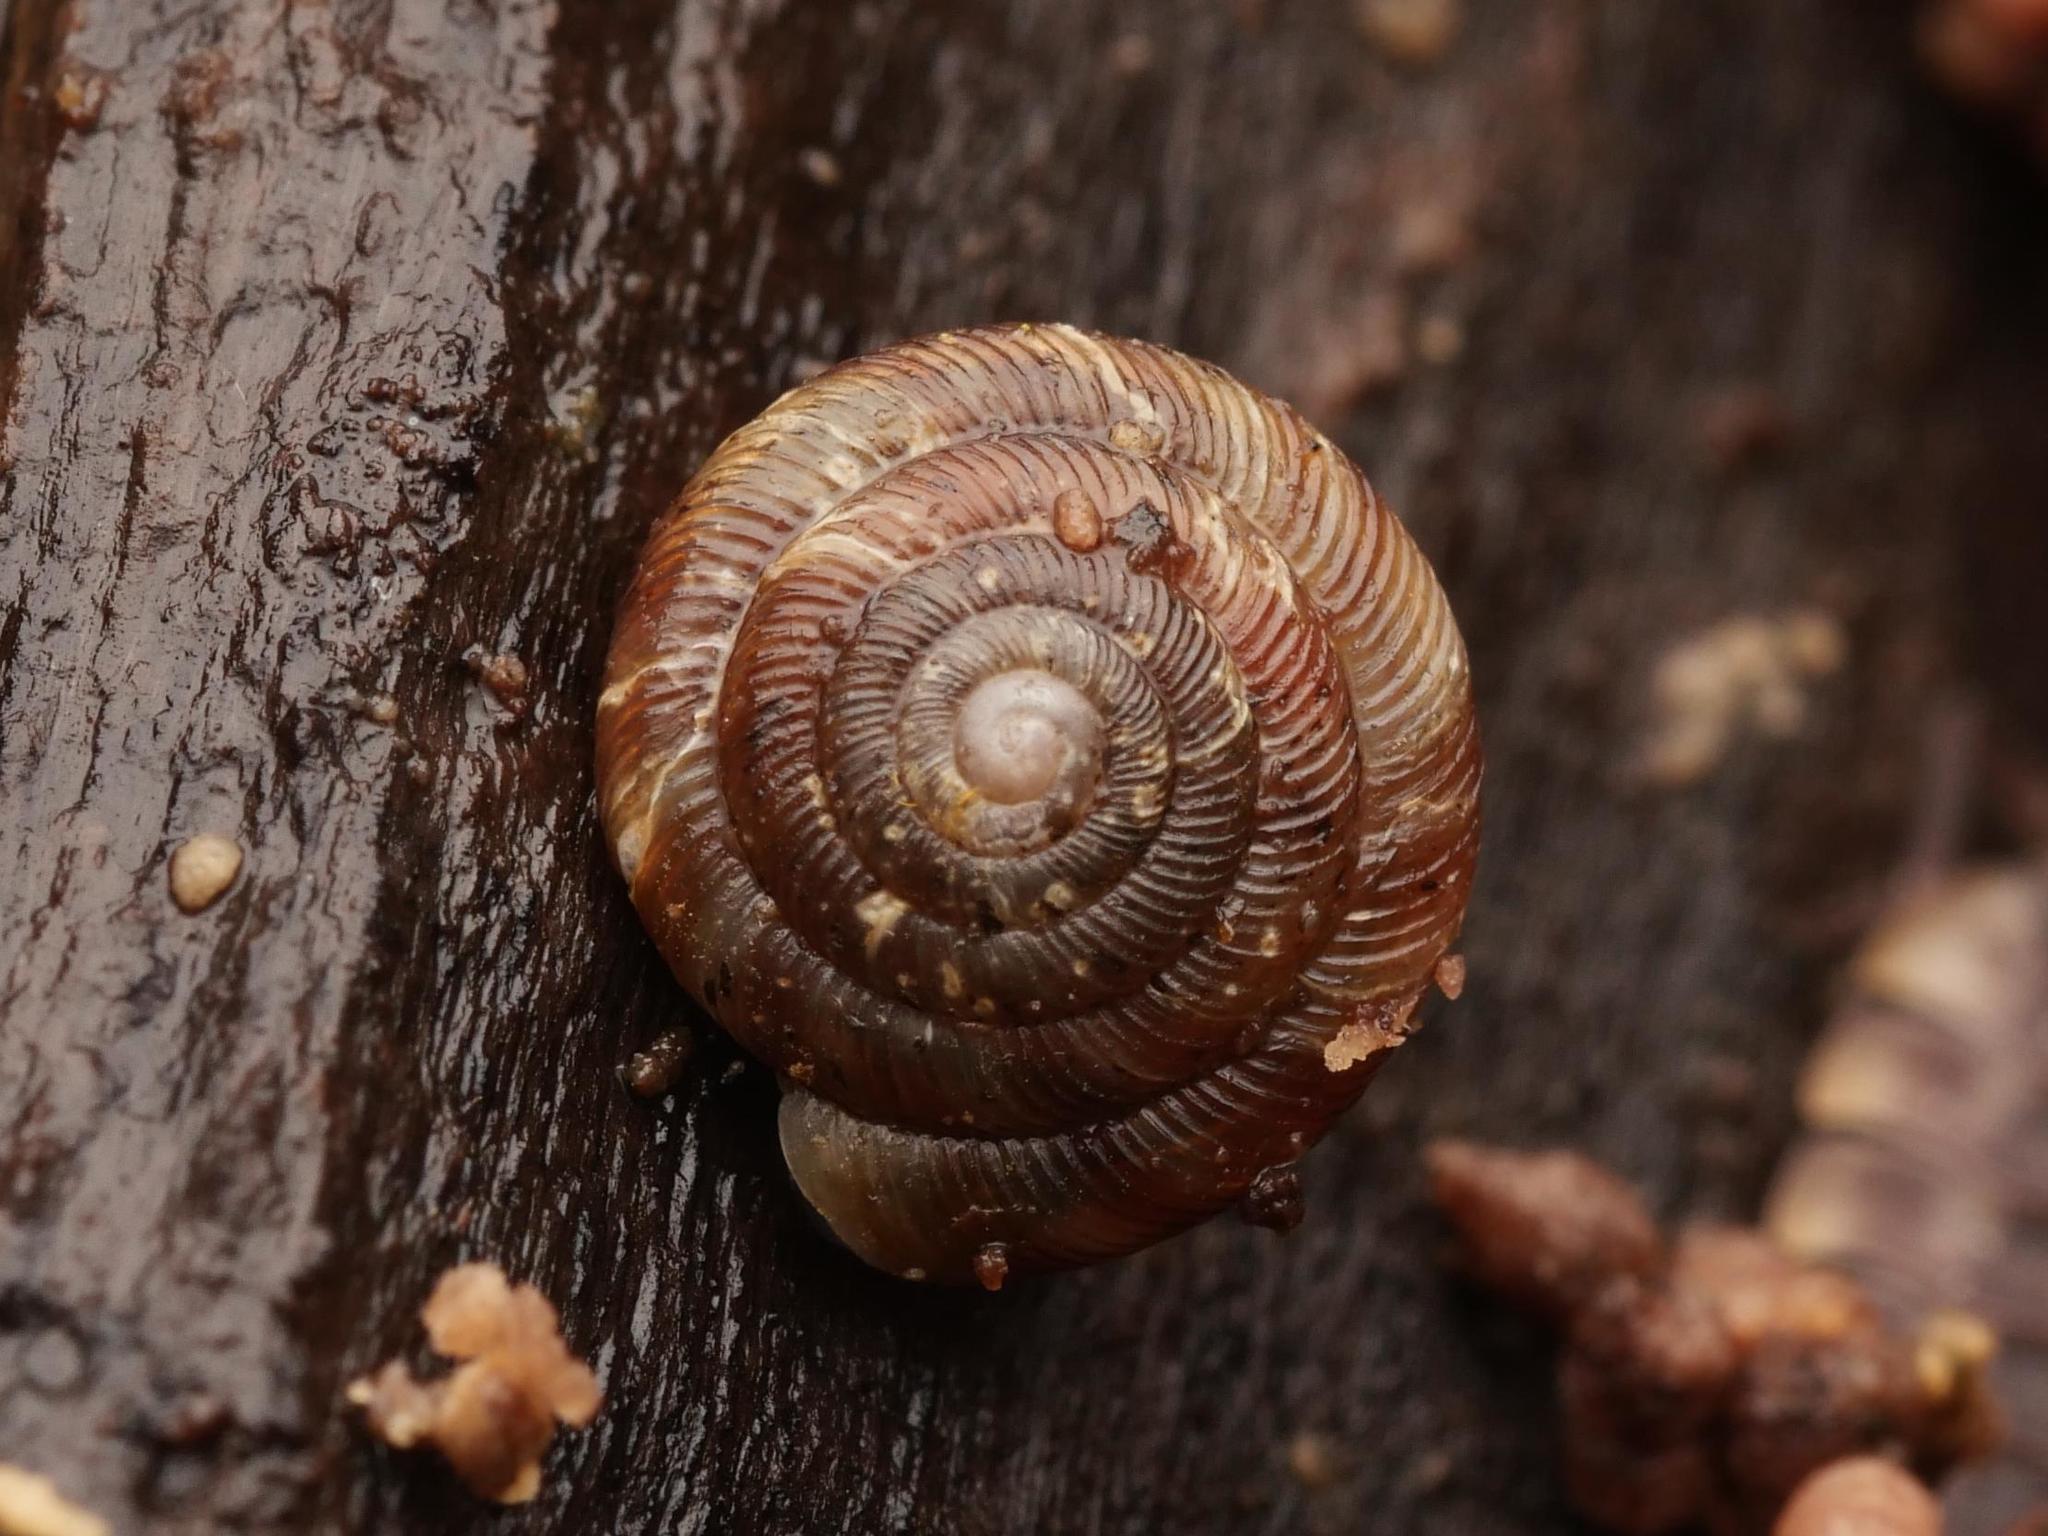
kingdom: Animalia
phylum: Mollusca
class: Gastropoda
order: Stylommatophora
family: Discidae
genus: Discus
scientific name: Discus rotundatus
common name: Rounded snail
